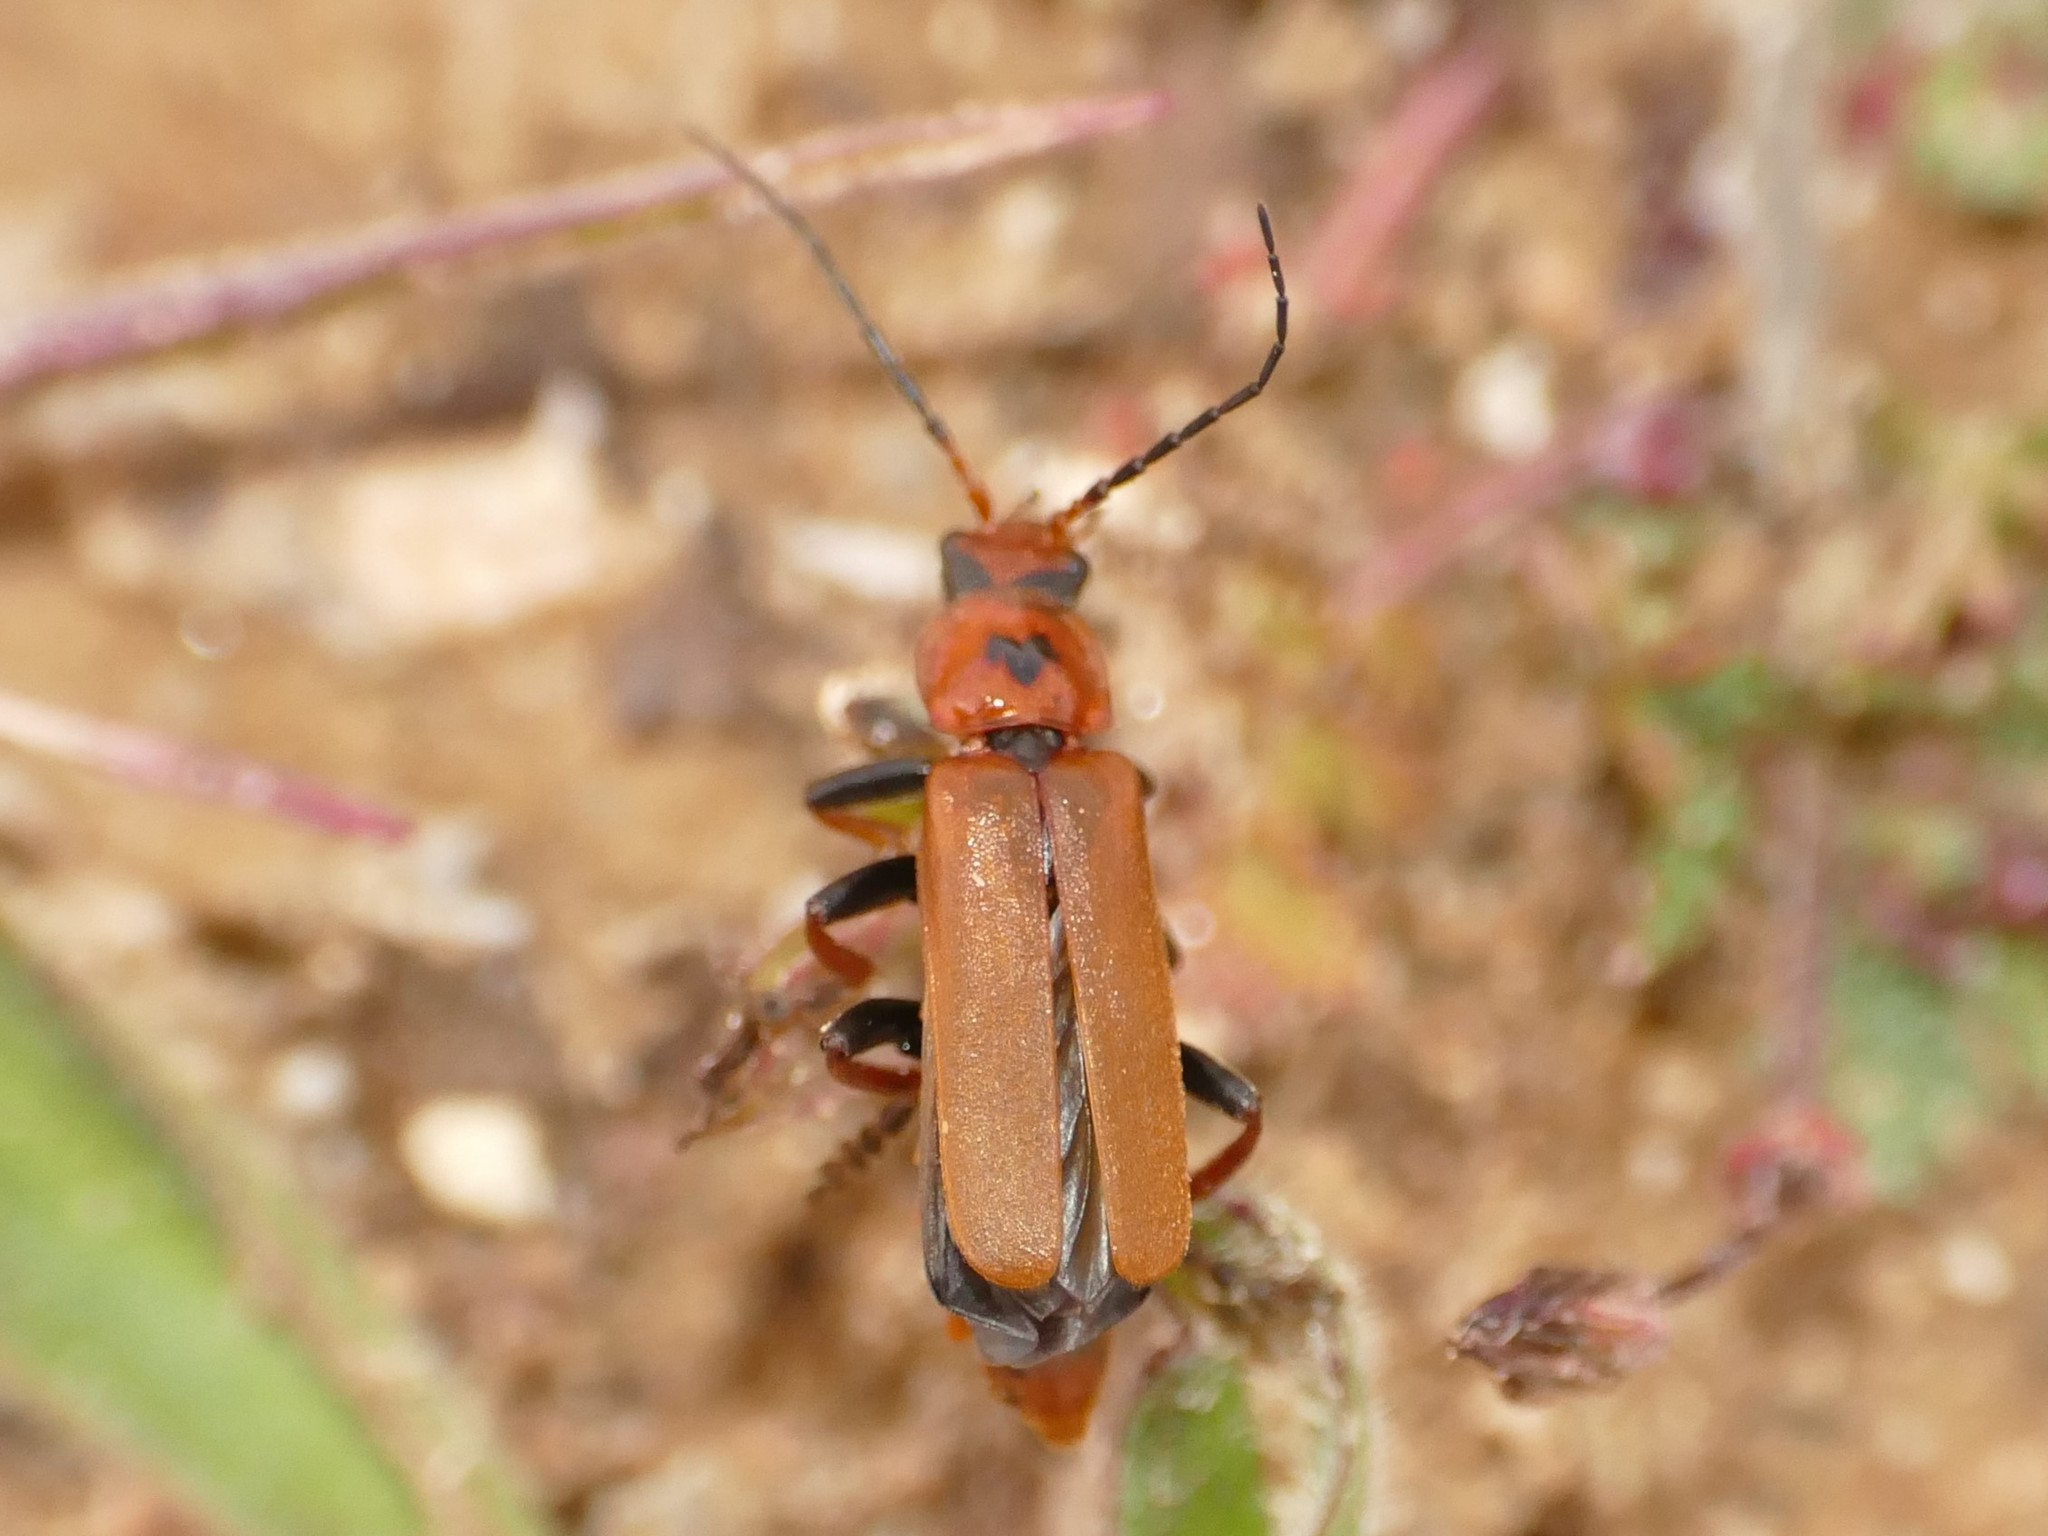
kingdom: Animalia
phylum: Arthropoda
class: Insecta
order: Coleoptera
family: Cantharidae
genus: Cantharis
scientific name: Cantharis coronata
